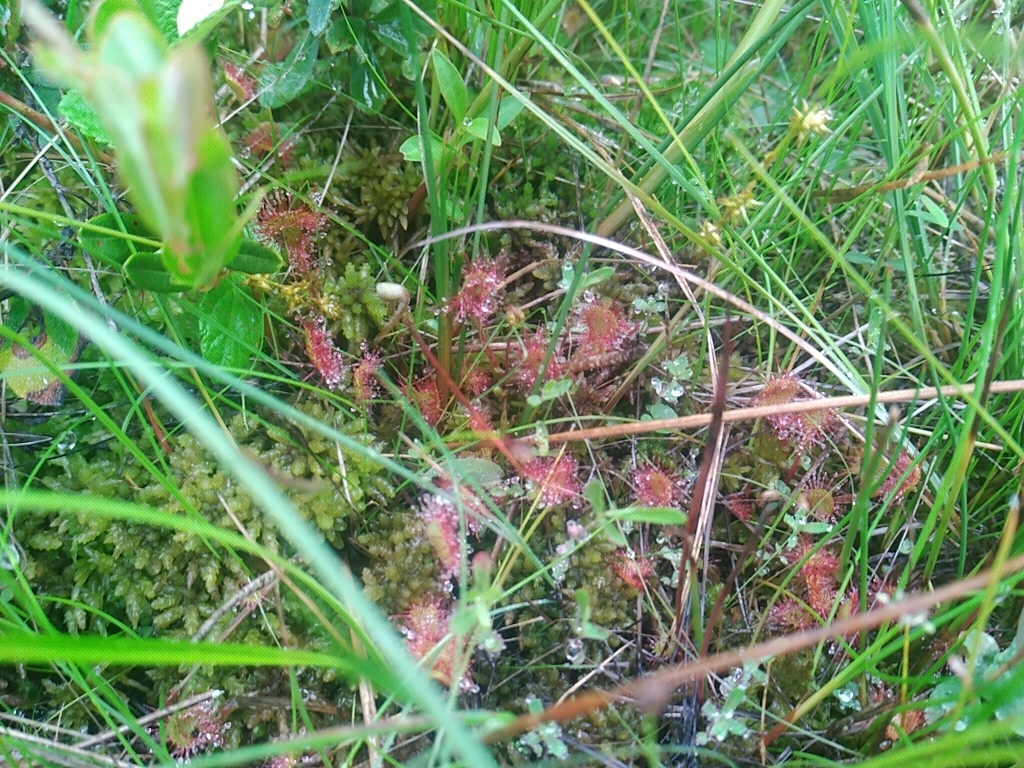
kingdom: Plantae
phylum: Tracheophyta
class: Magnoliopsida
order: Caryophyllales
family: Droseraceae
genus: Drosera
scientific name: Drosera rotundifolia
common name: Round-leaved sundew
